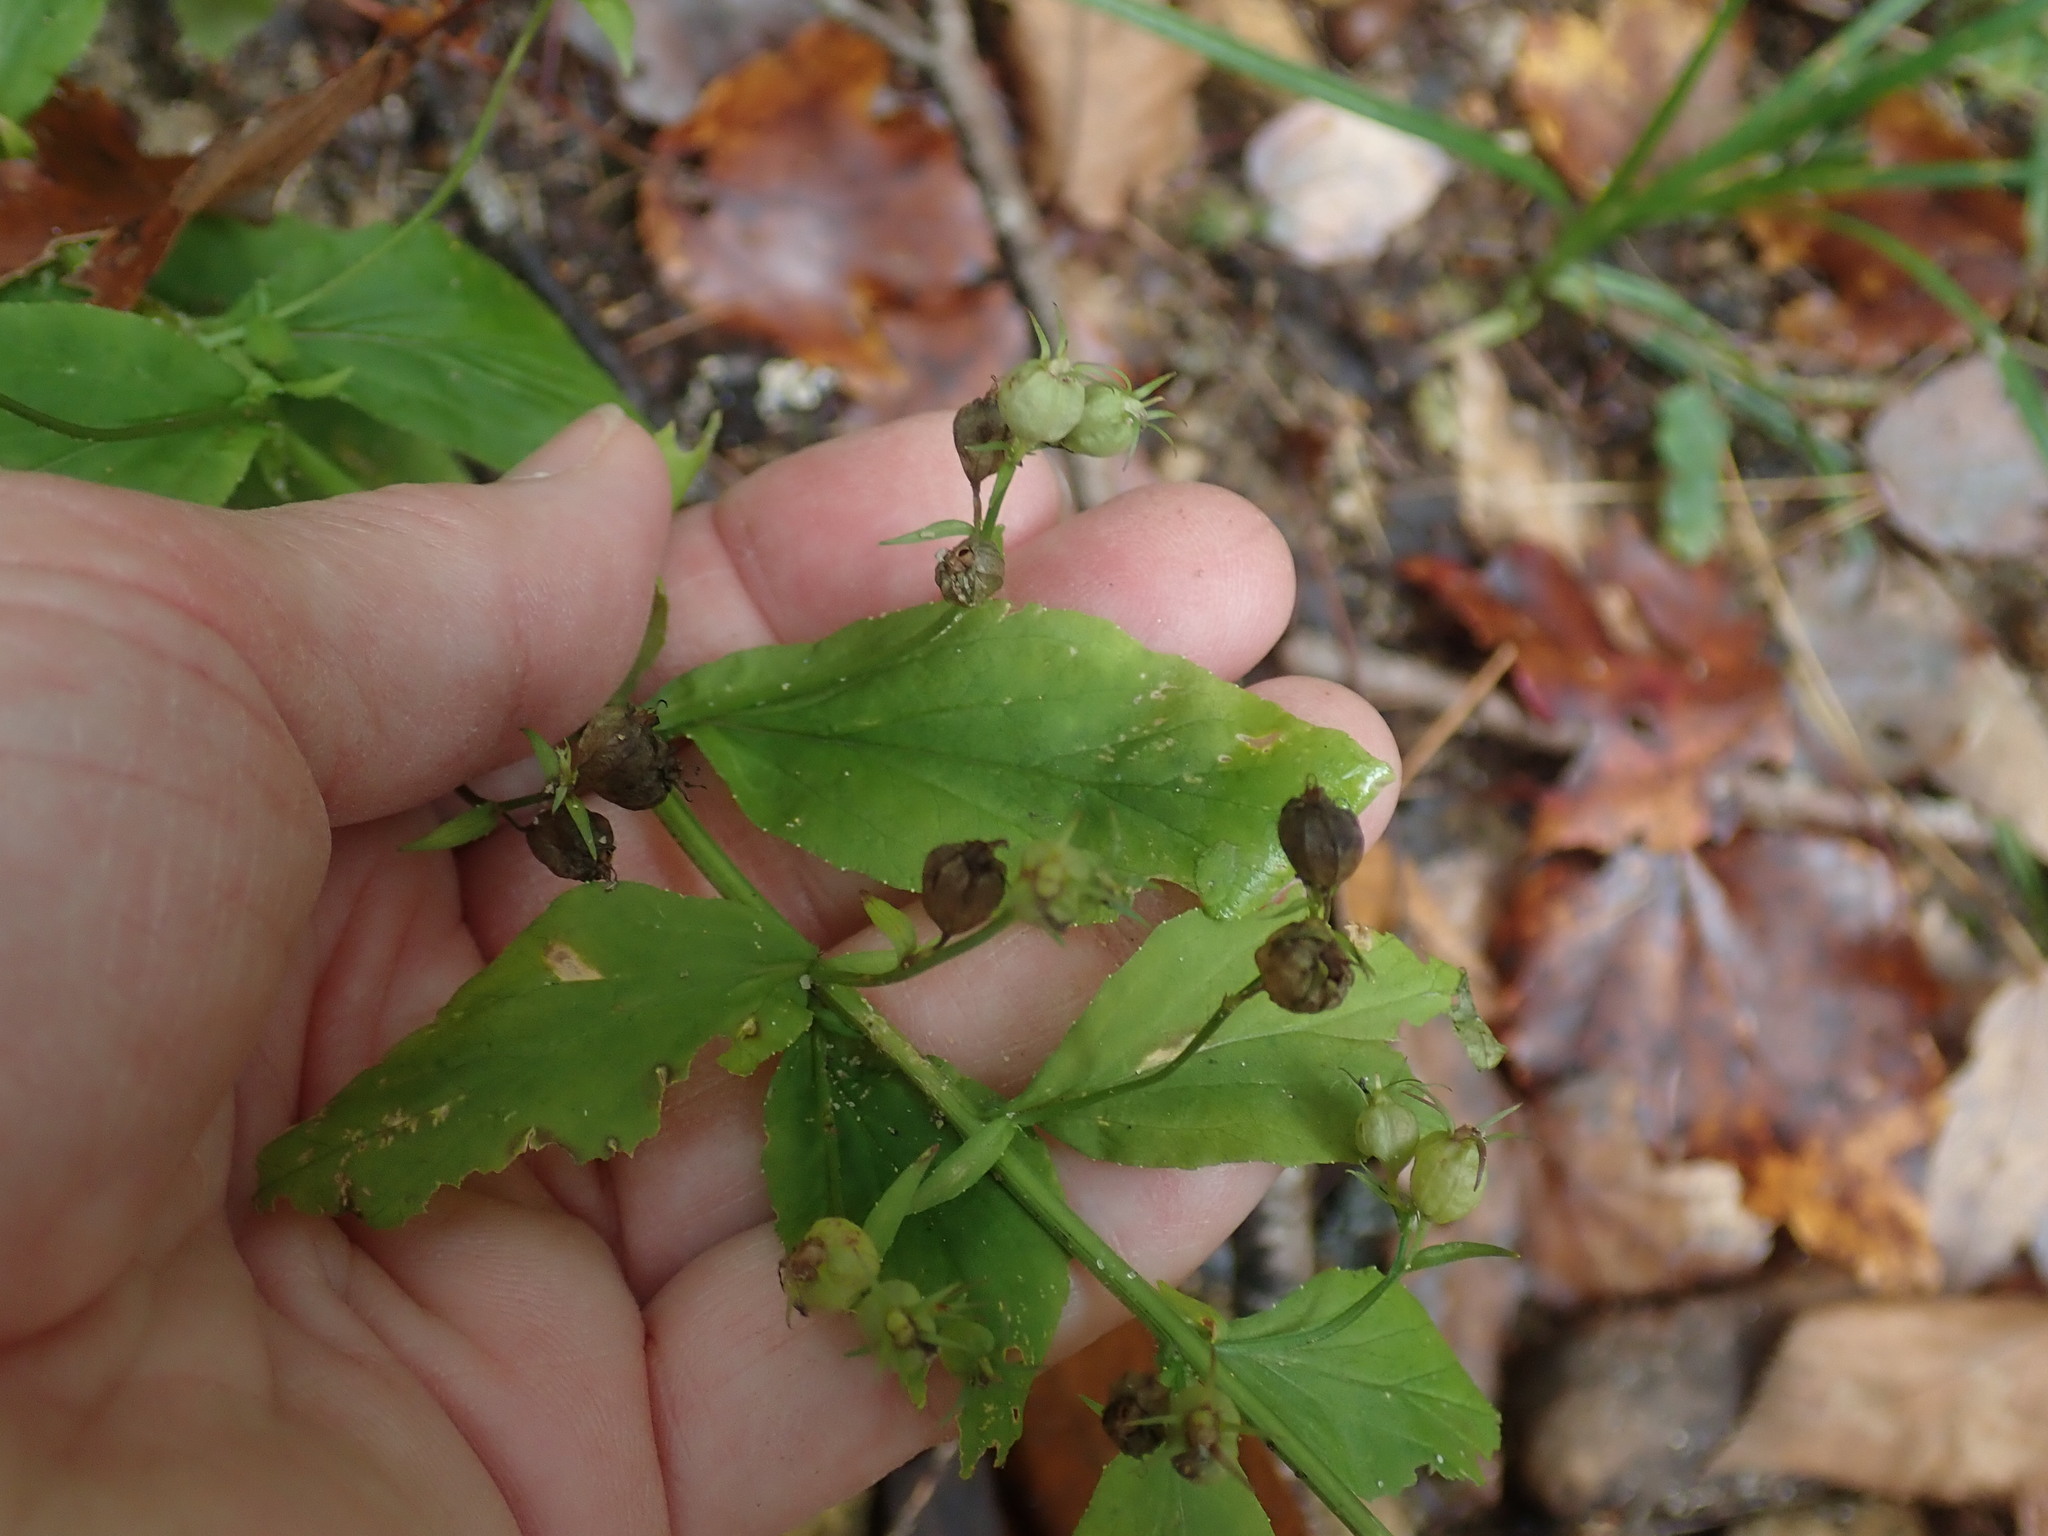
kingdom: Plantae
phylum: Tracheophyta
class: Magnoliopsida
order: Asterales
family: Campanulaceae
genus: Lobelia
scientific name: Lobelia inflata
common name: Indian tobacco
